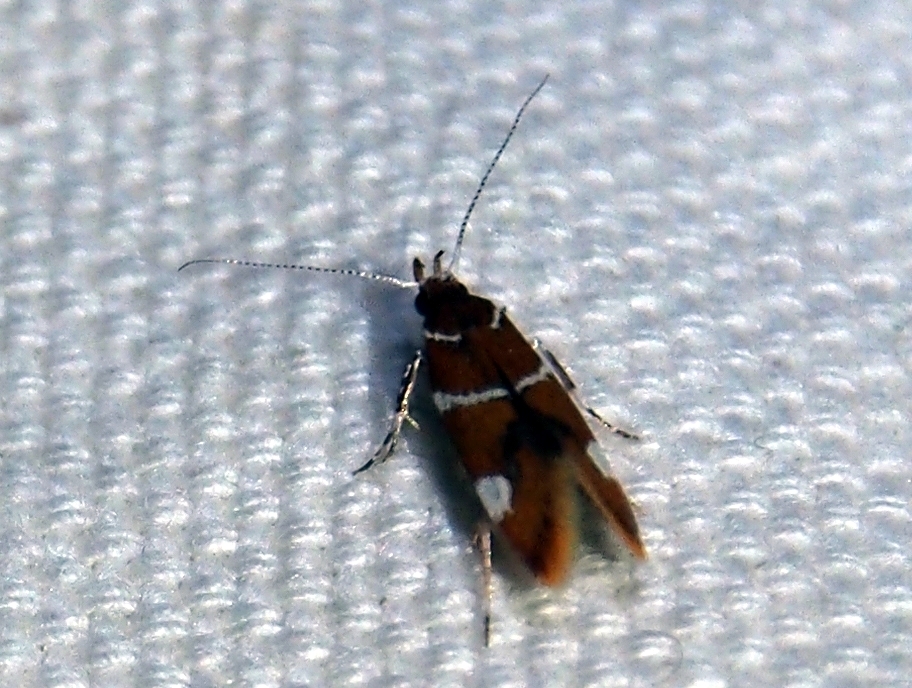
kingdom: Animalia
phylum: Arthropoda
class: Insecta
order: Lepidoptera
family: Oecophoridae
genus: Promalactis
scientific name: Promalactis suzukiella
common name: Moth
